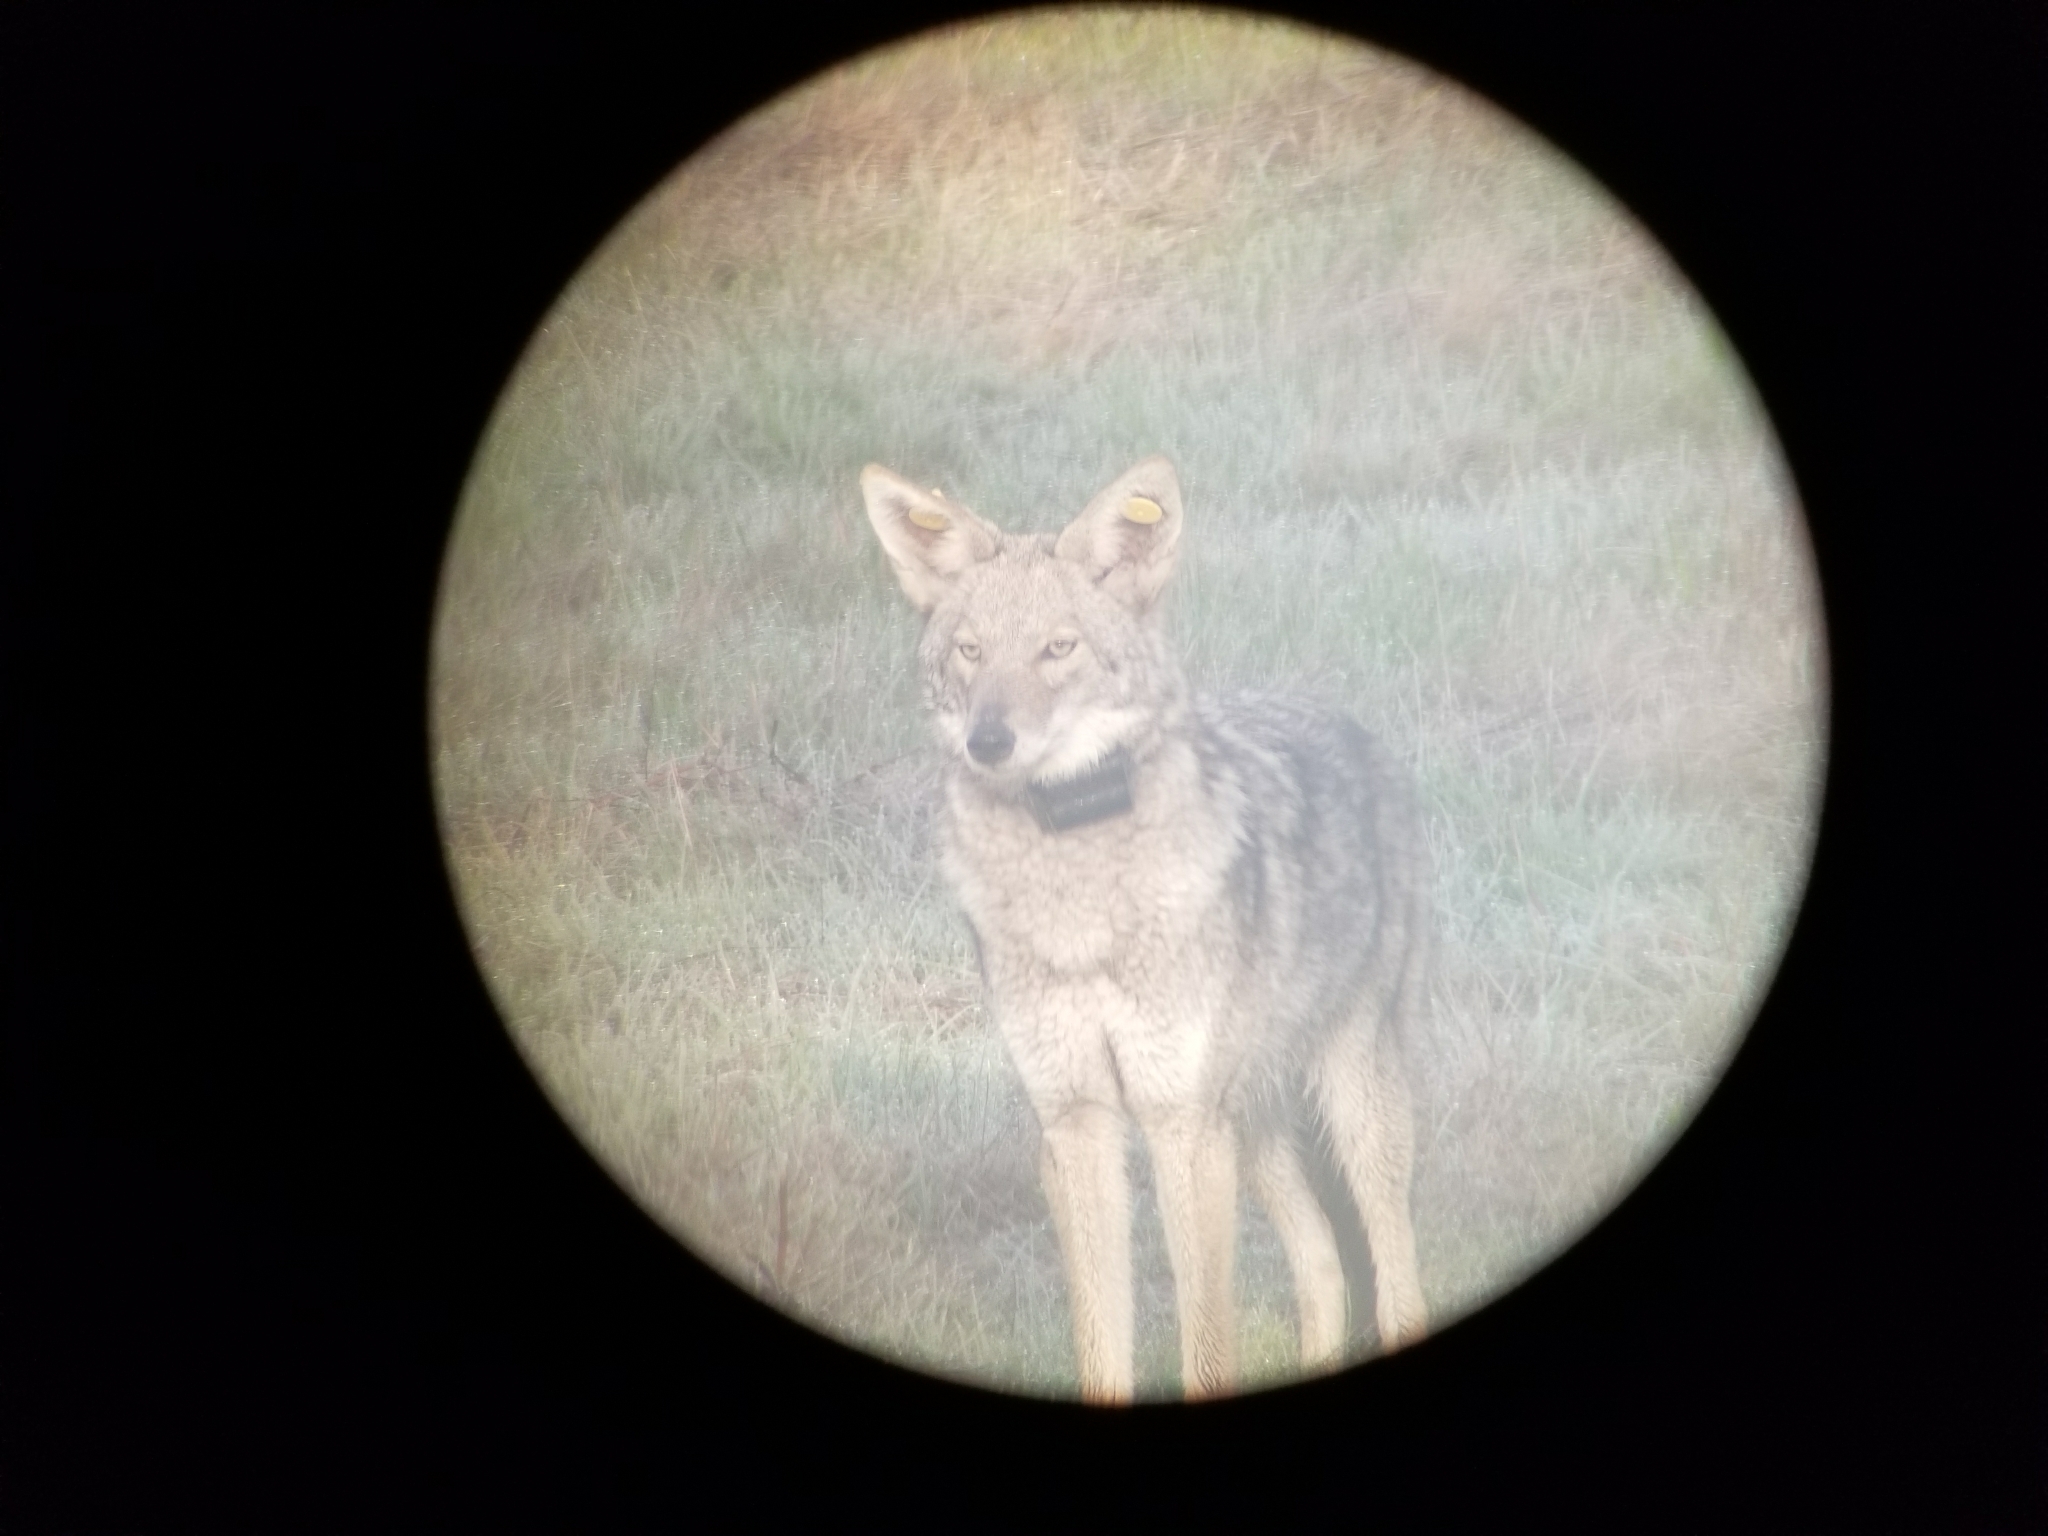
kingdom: Animalia
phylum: Chordata
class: Mammalia
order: Carnivora
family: Canidae
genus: Canis
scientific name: Canis latrans
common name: Coyote
